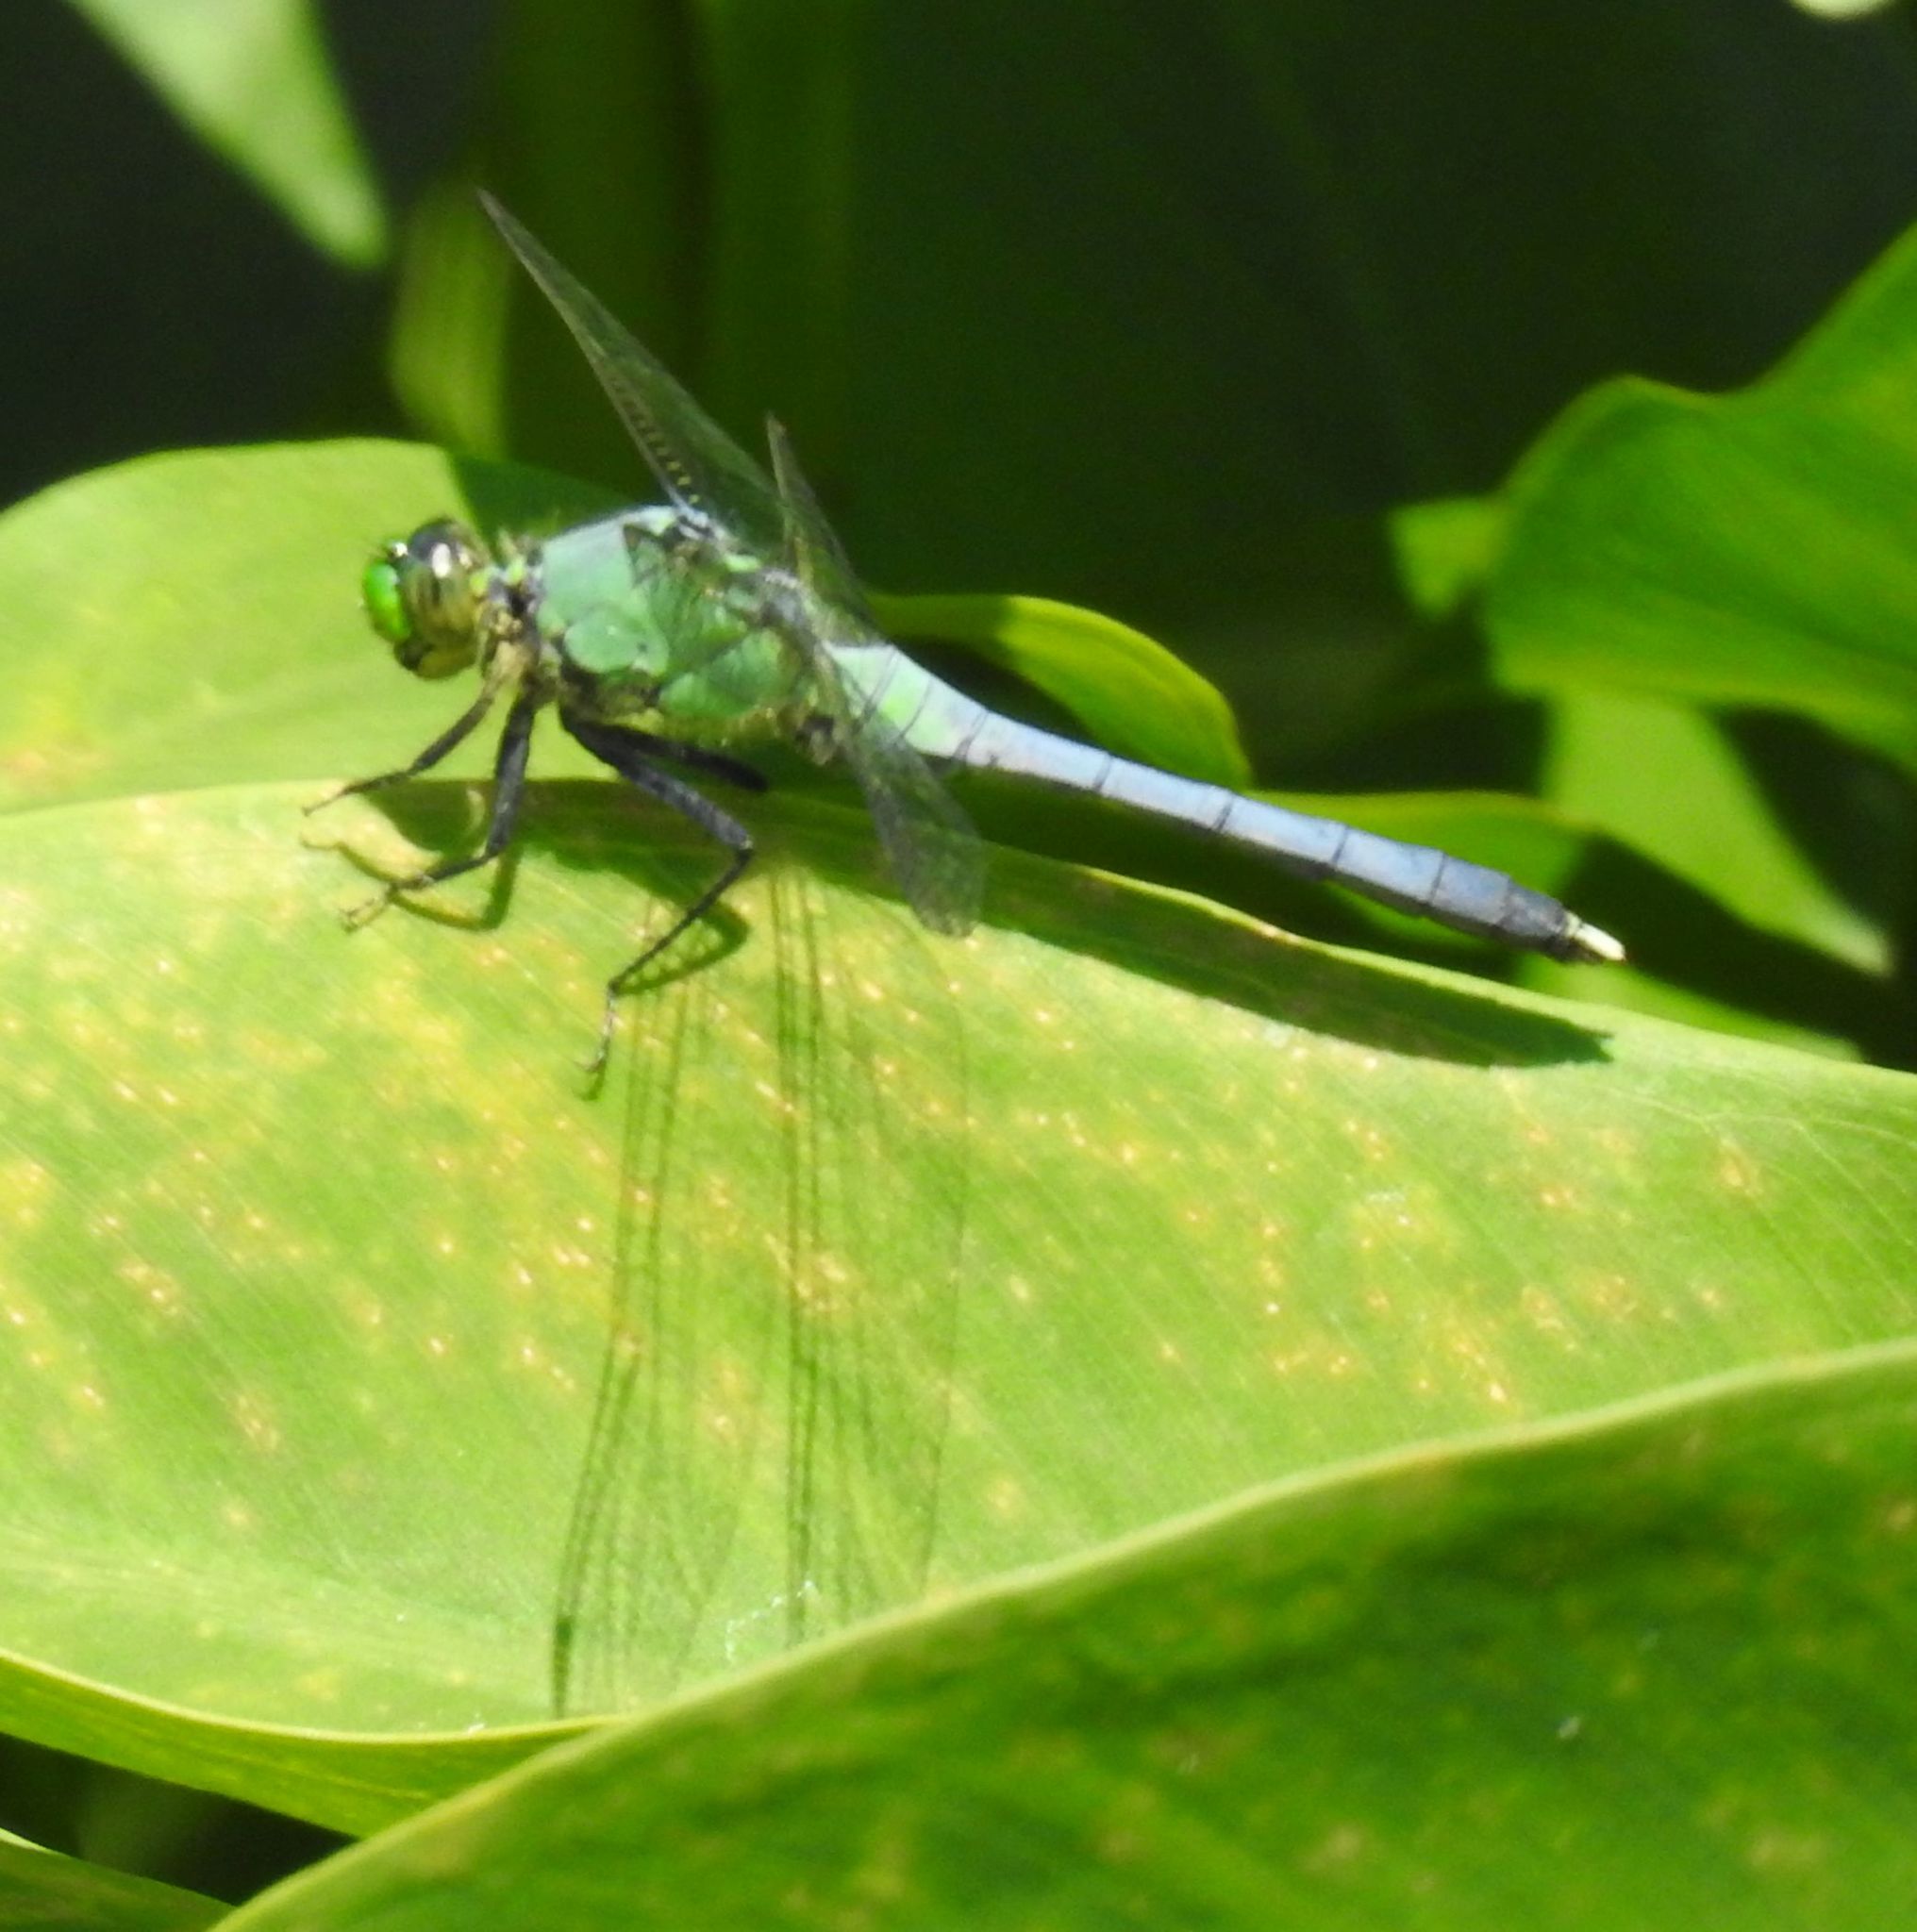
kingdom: Animalia
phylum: Arthropoda
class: Insecta
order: Odonata
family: Libellulidae
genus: Erythemis
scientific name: Erythemis simplicicollis
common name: Eastern pondhawk
